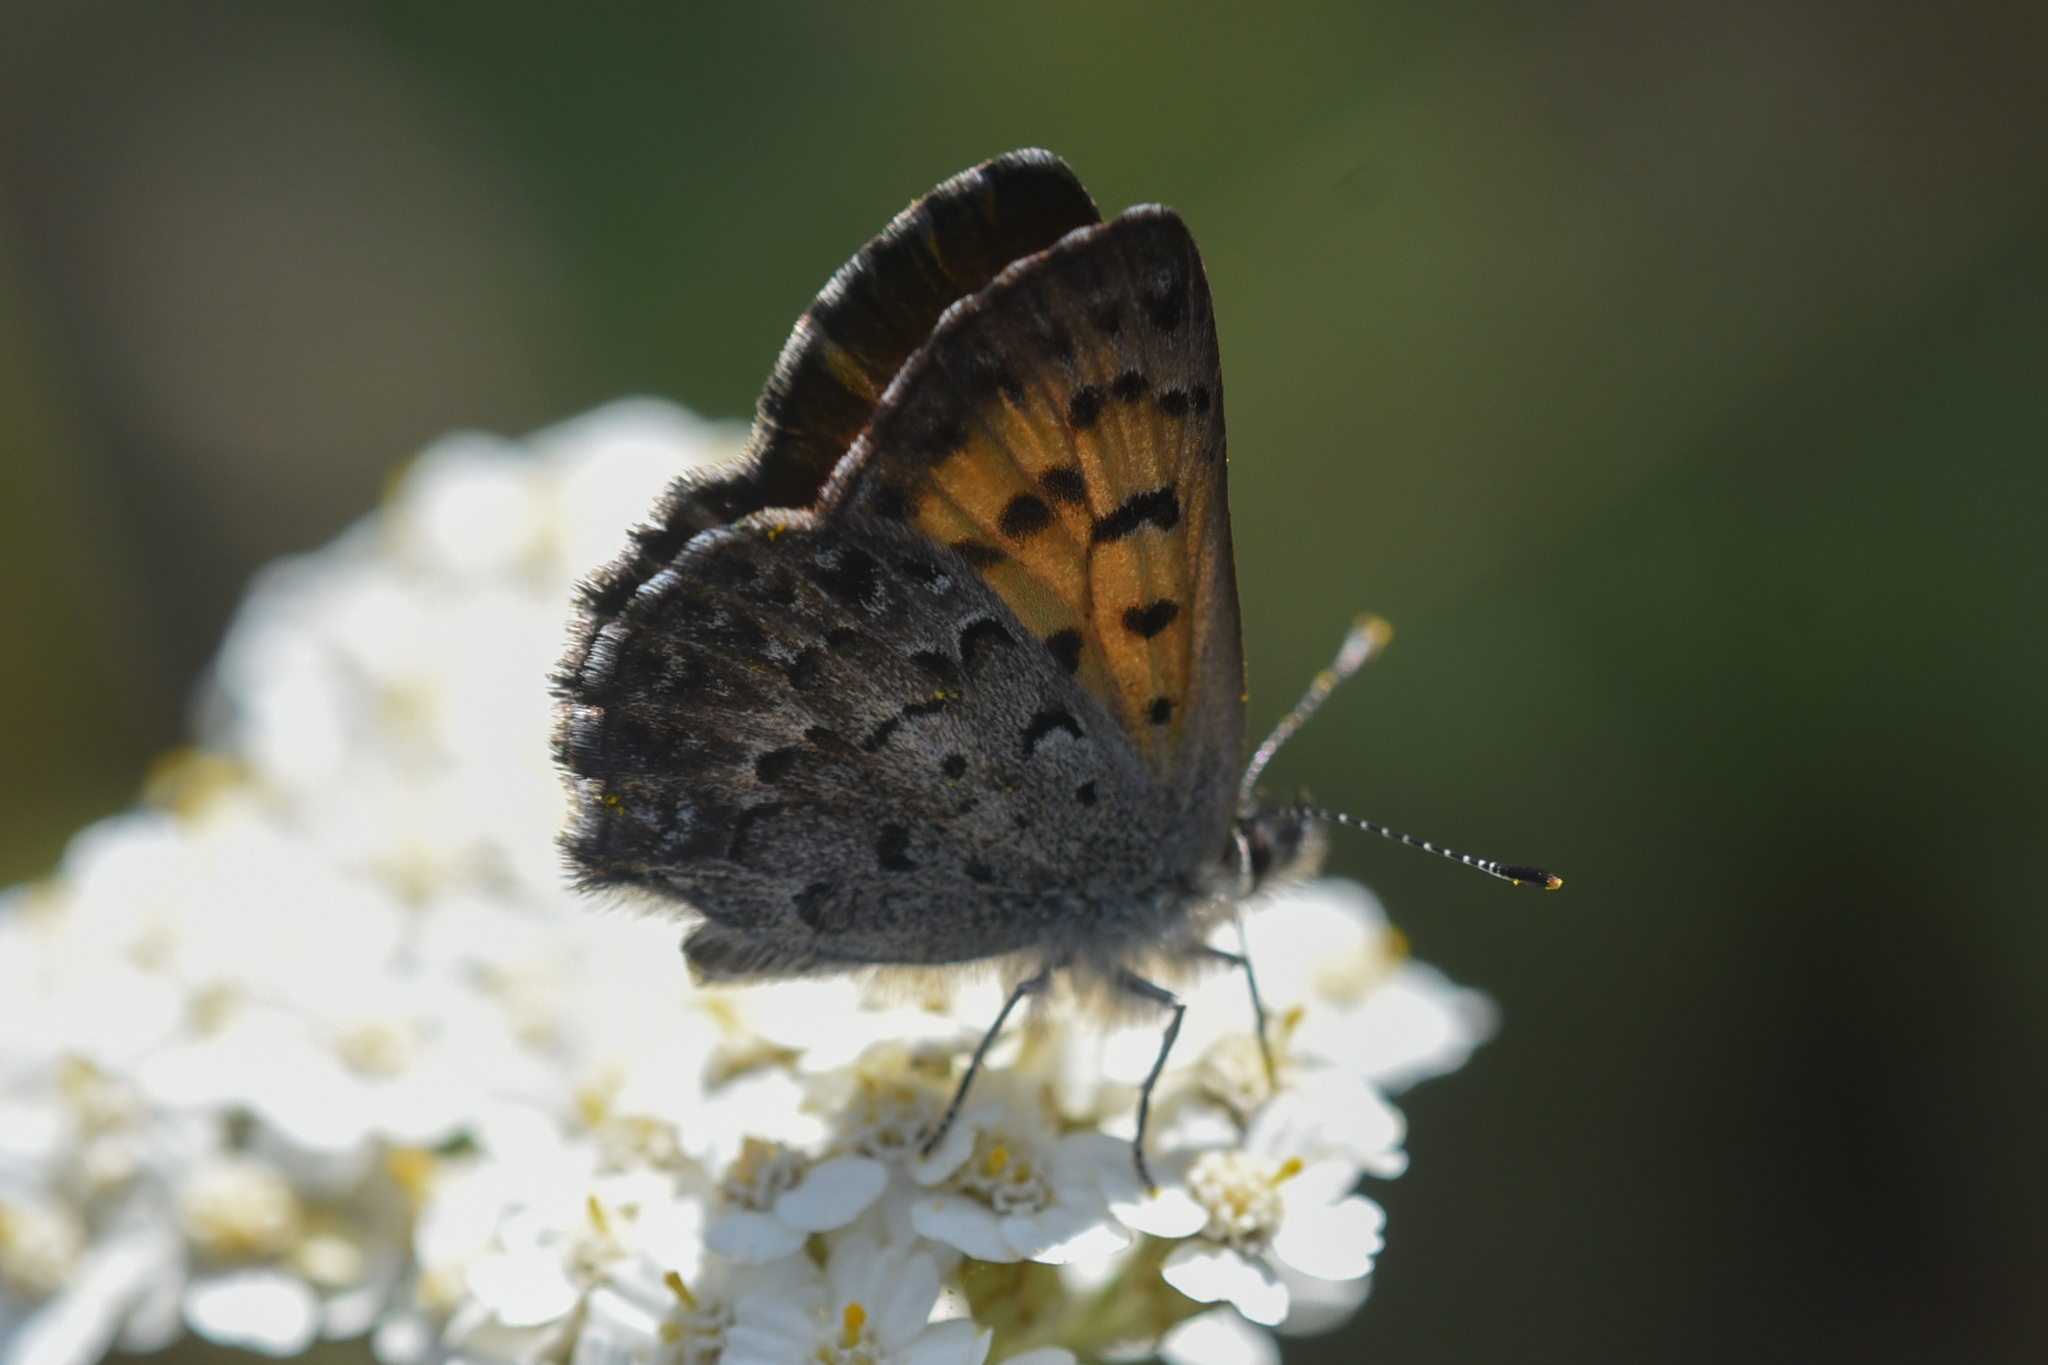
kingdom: Animalia
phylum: Arthropoda
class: Insecta
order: Lepidoptera
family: Lycaenidae
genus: Tharsalea
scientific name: Tharsalea mariposa
